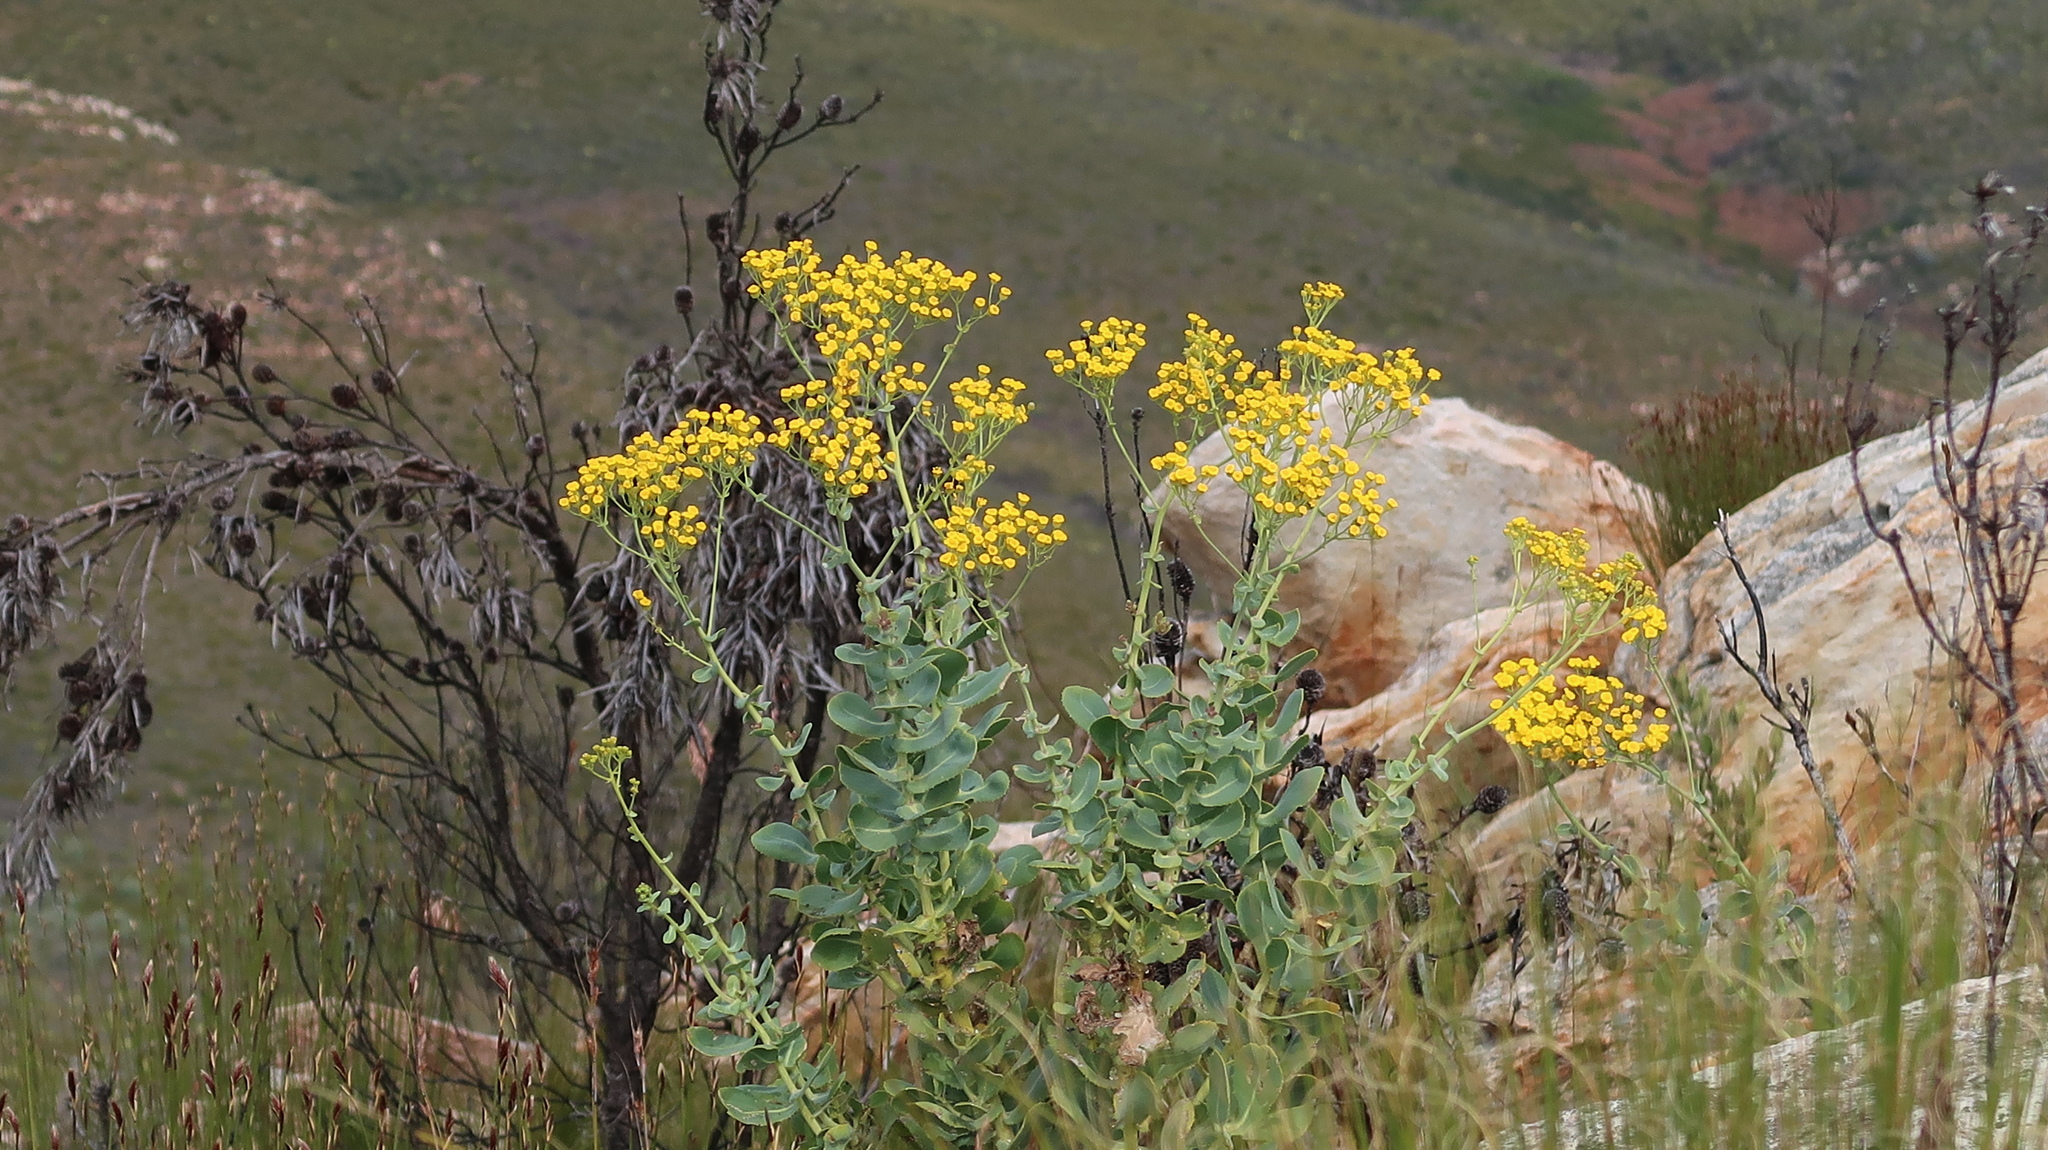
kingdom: Plantae
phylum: Tracheophyta
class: Magnoliopsida
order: Asterales
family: Asteraceae
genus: Othonna
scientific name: Othonna parviflora
